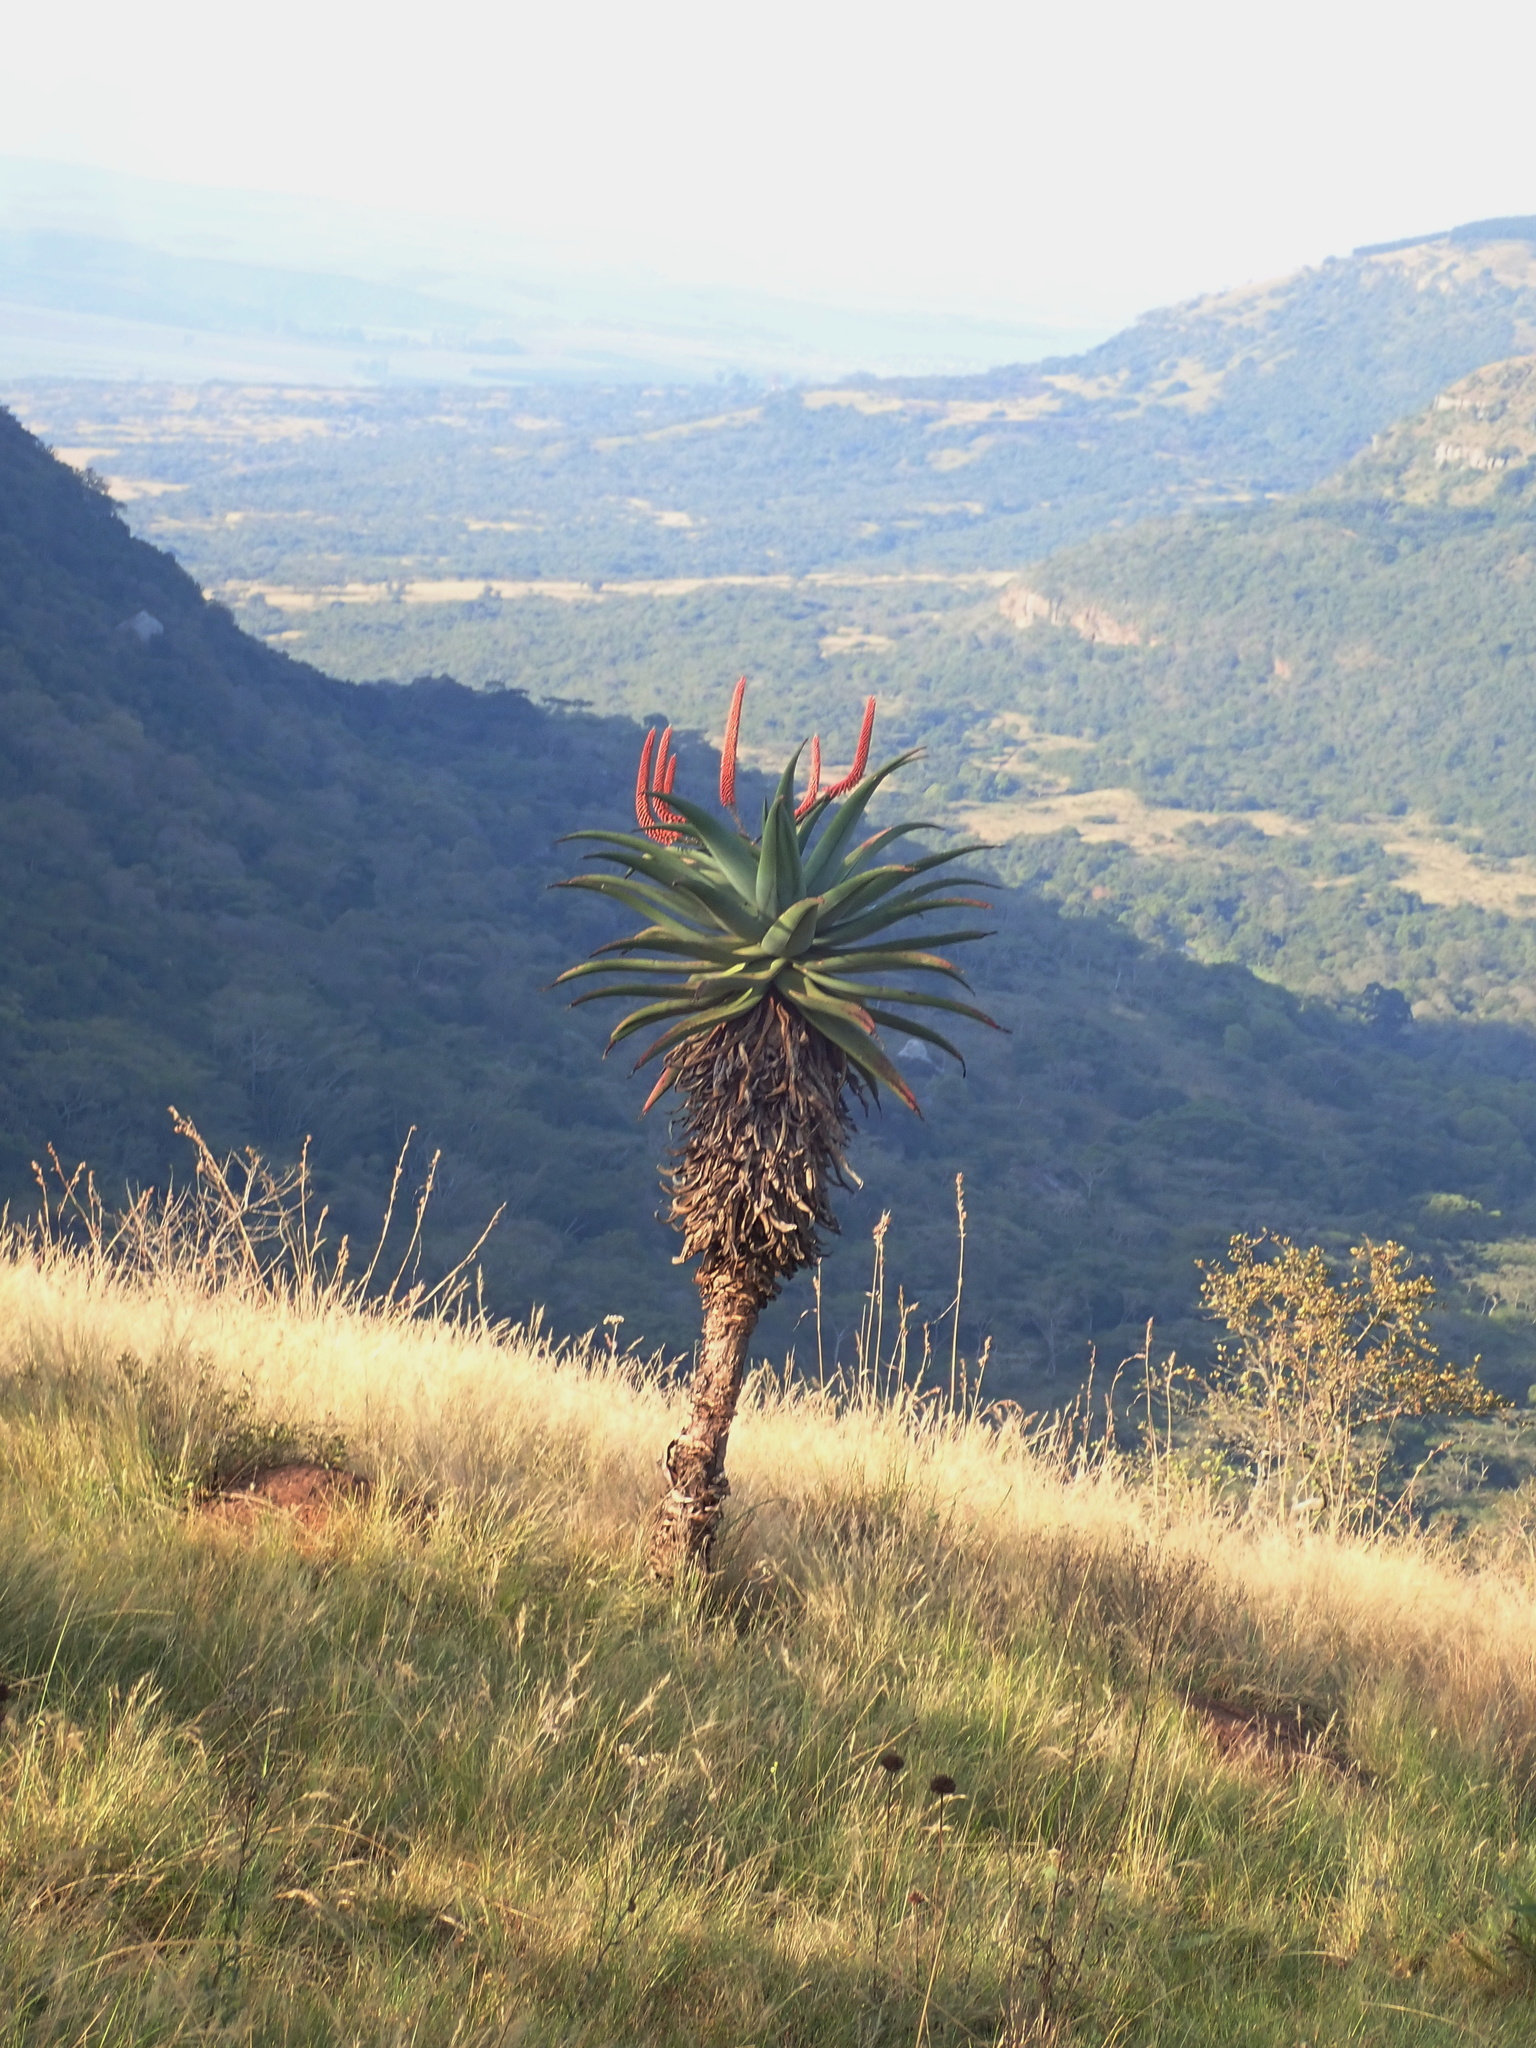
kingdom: Plantae
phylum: Tracheophyta
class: Liliopsida
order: Asparagales
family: Asphodelaceae
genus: Aloe
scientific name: Aloe candelabrum
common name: Candelabra aloe
